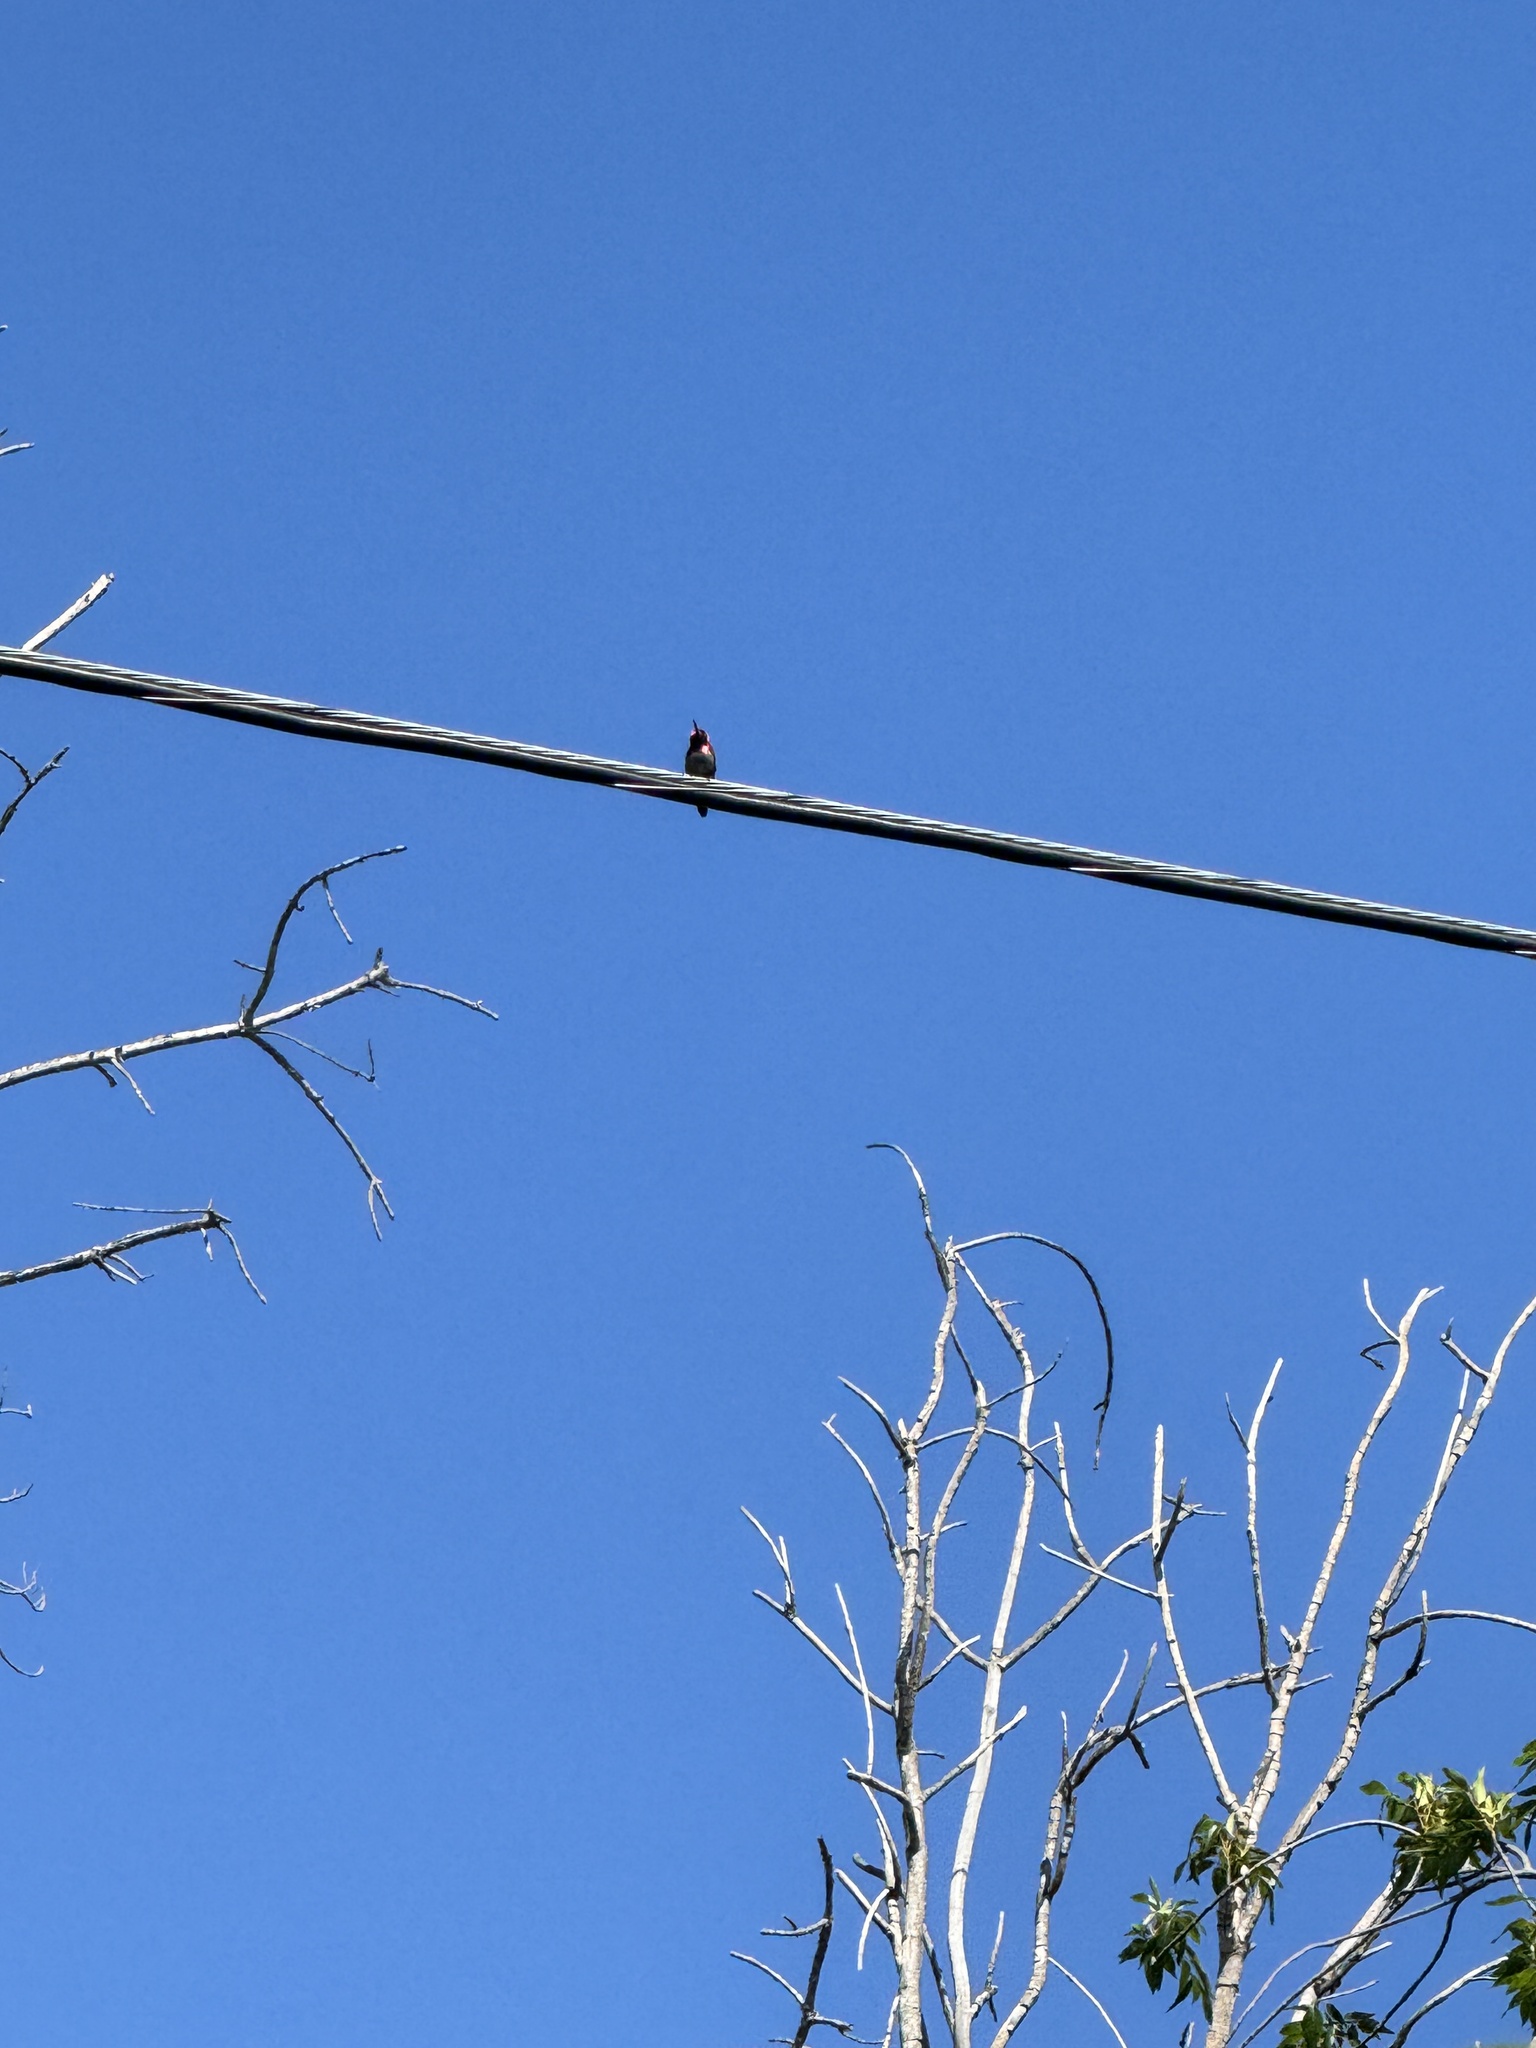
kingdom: Animalia
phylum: Chordata
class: Aves
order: Apodiformes
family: Trochilidae
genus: Calypte
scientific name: Calypte anna
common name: Anna's hummingbird
